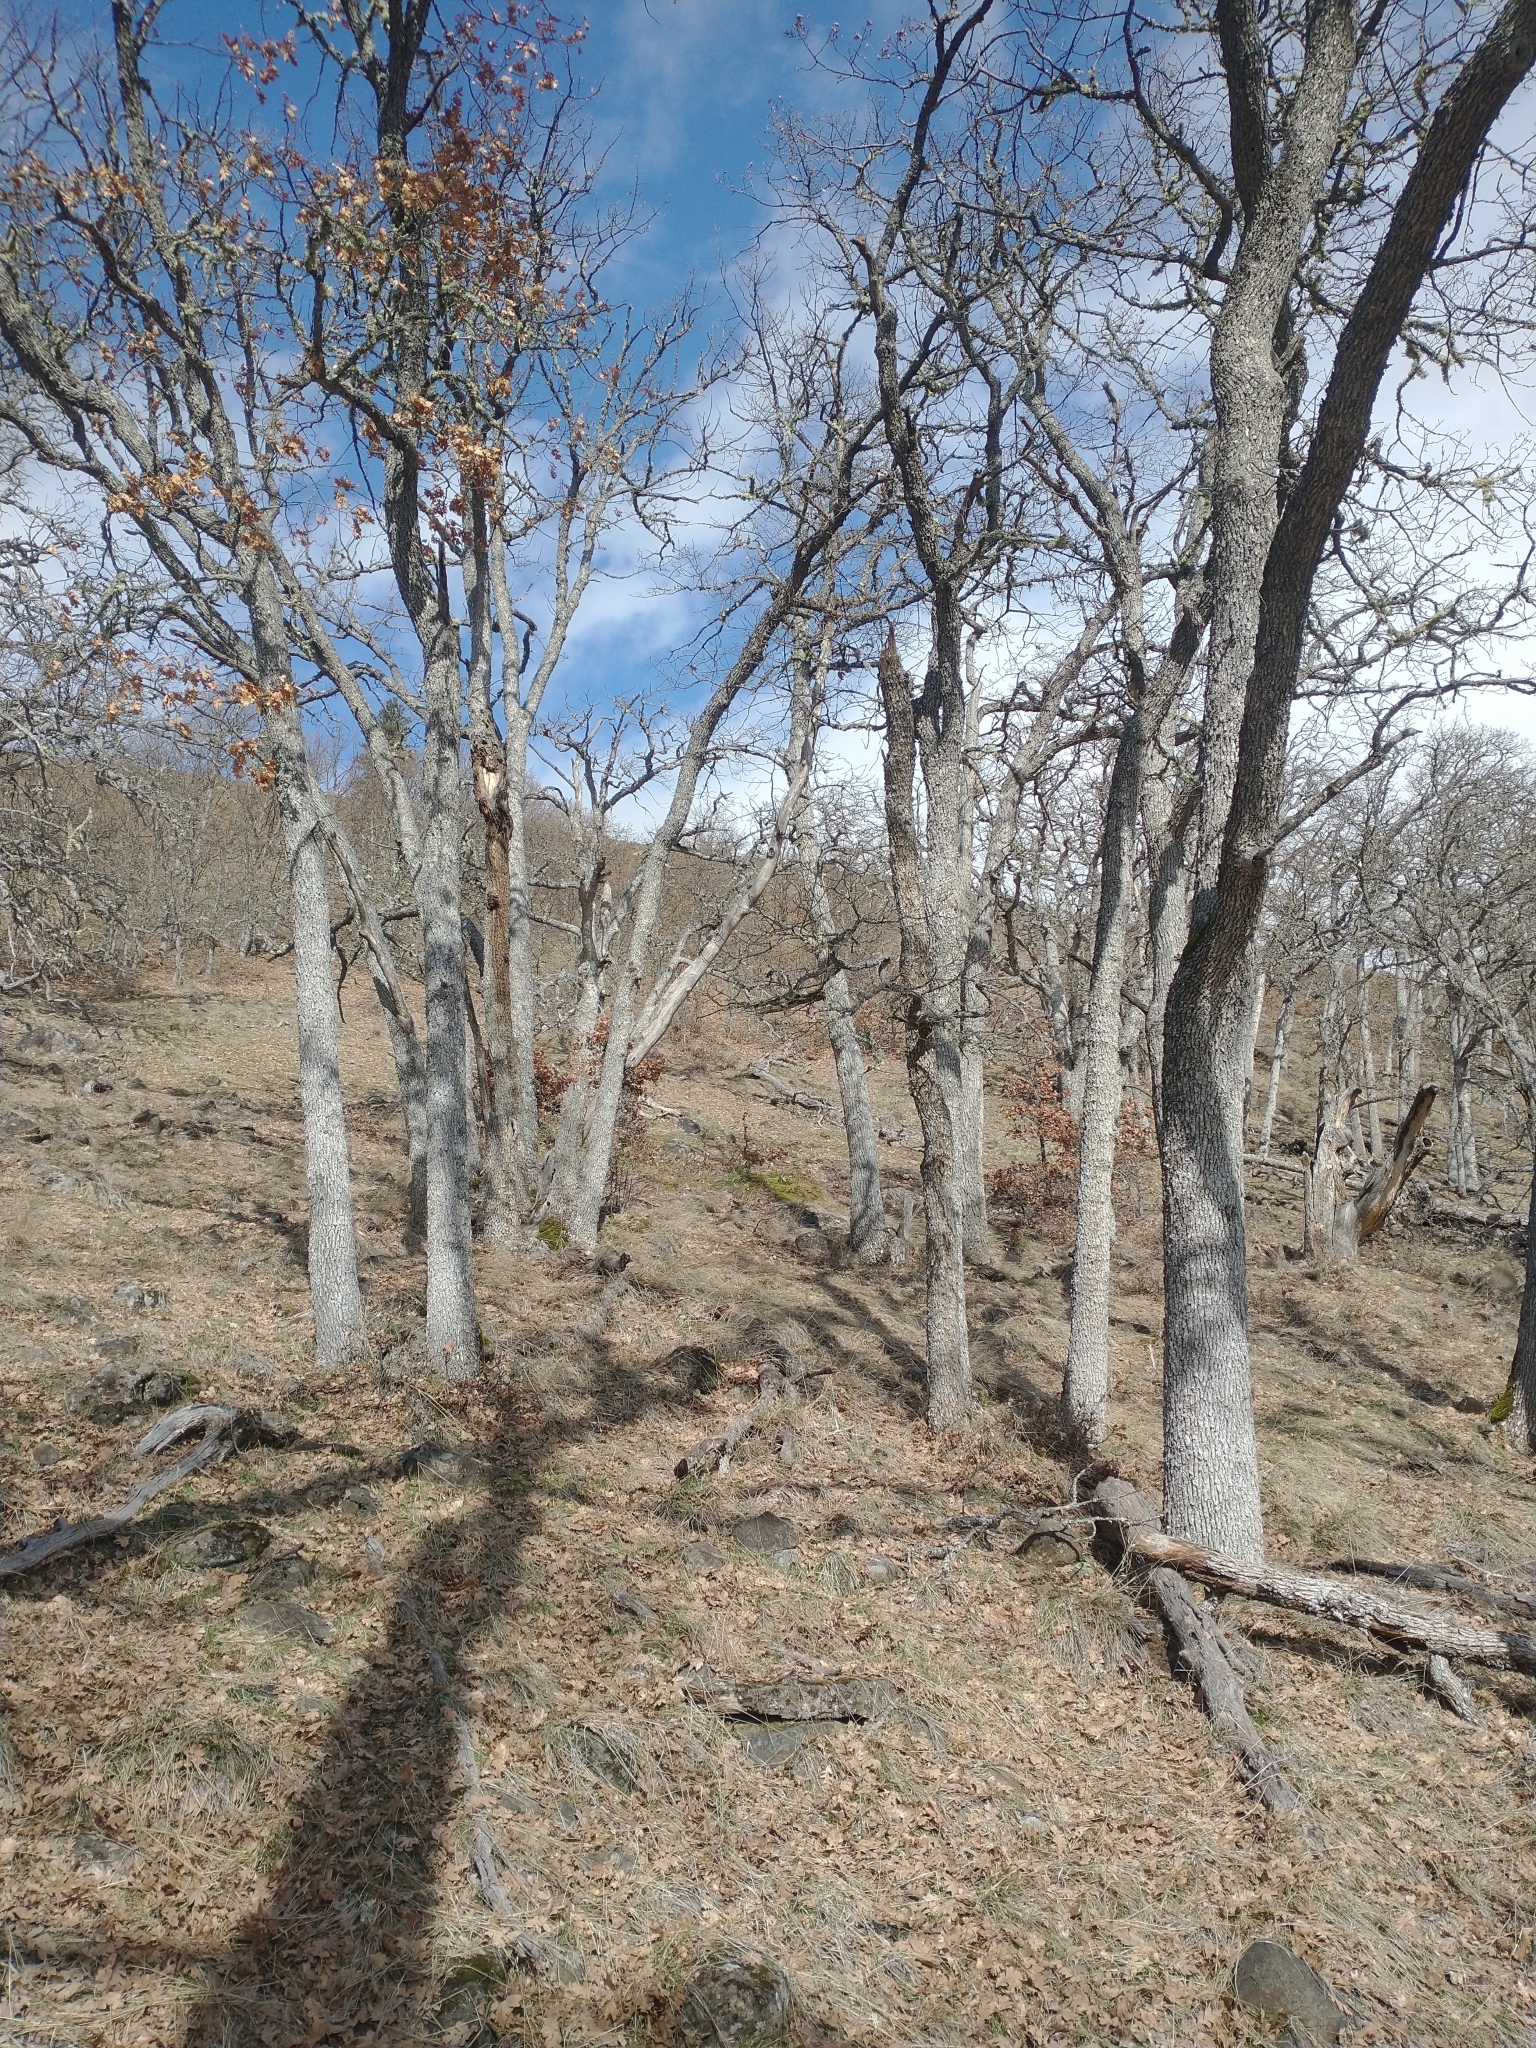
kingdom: Plantae
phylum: Tracheophyta
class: Magnoliopsida
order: Fagales
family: Fagaceae
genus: Quercus
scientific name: Quercus garryana
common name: Garry oak
